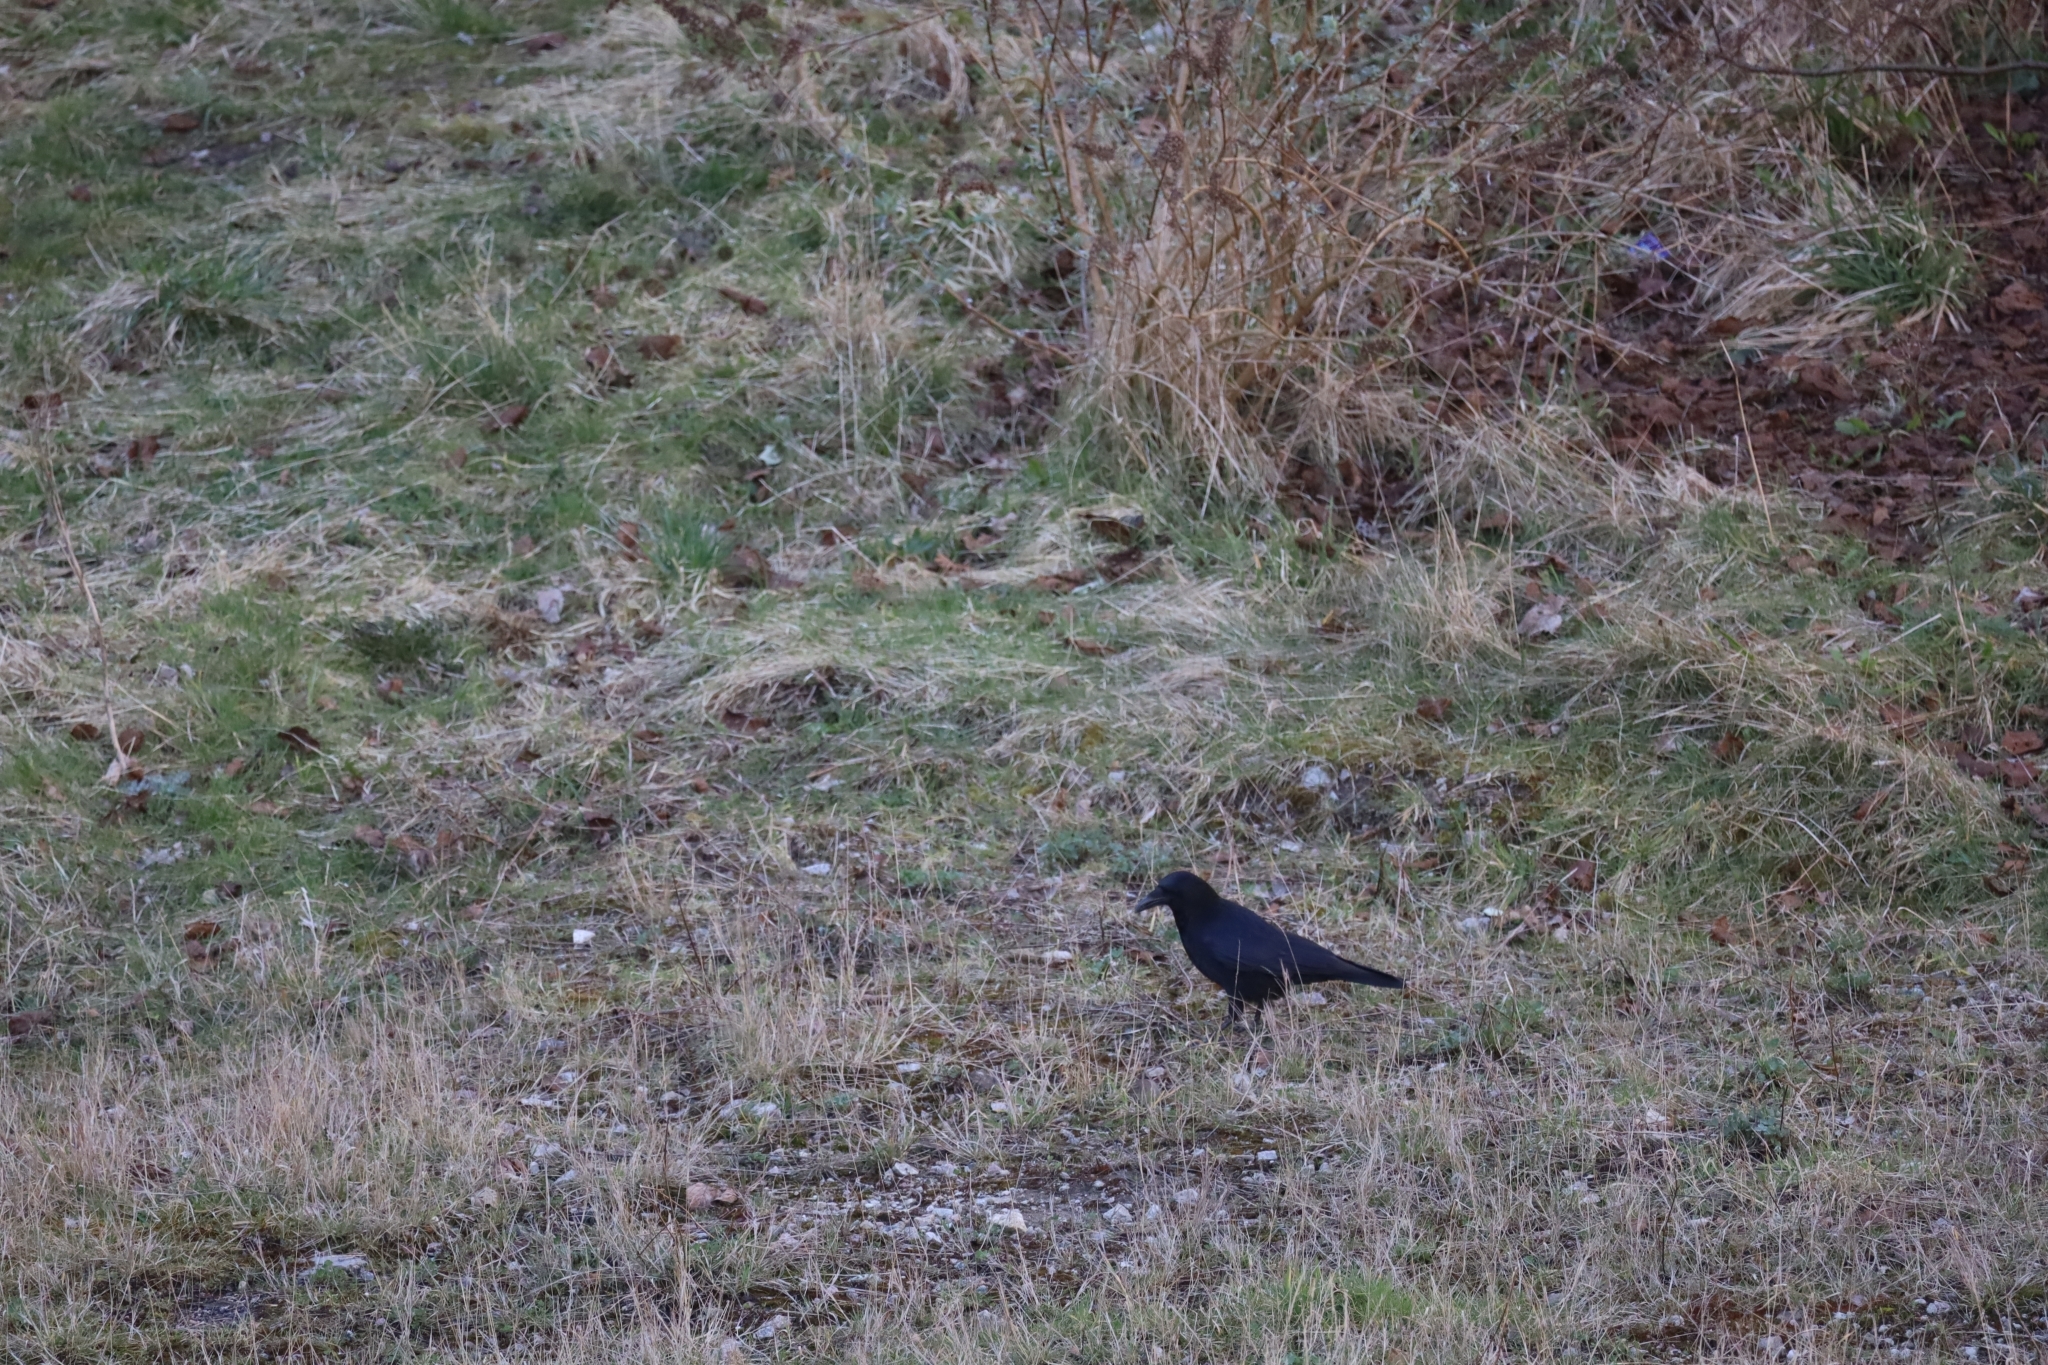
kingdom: Animalia
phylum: Chordata
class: Aves
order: Passeriformes
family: Corvidae
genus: Corvus
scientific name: Corvus corone
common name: Carrion crow
